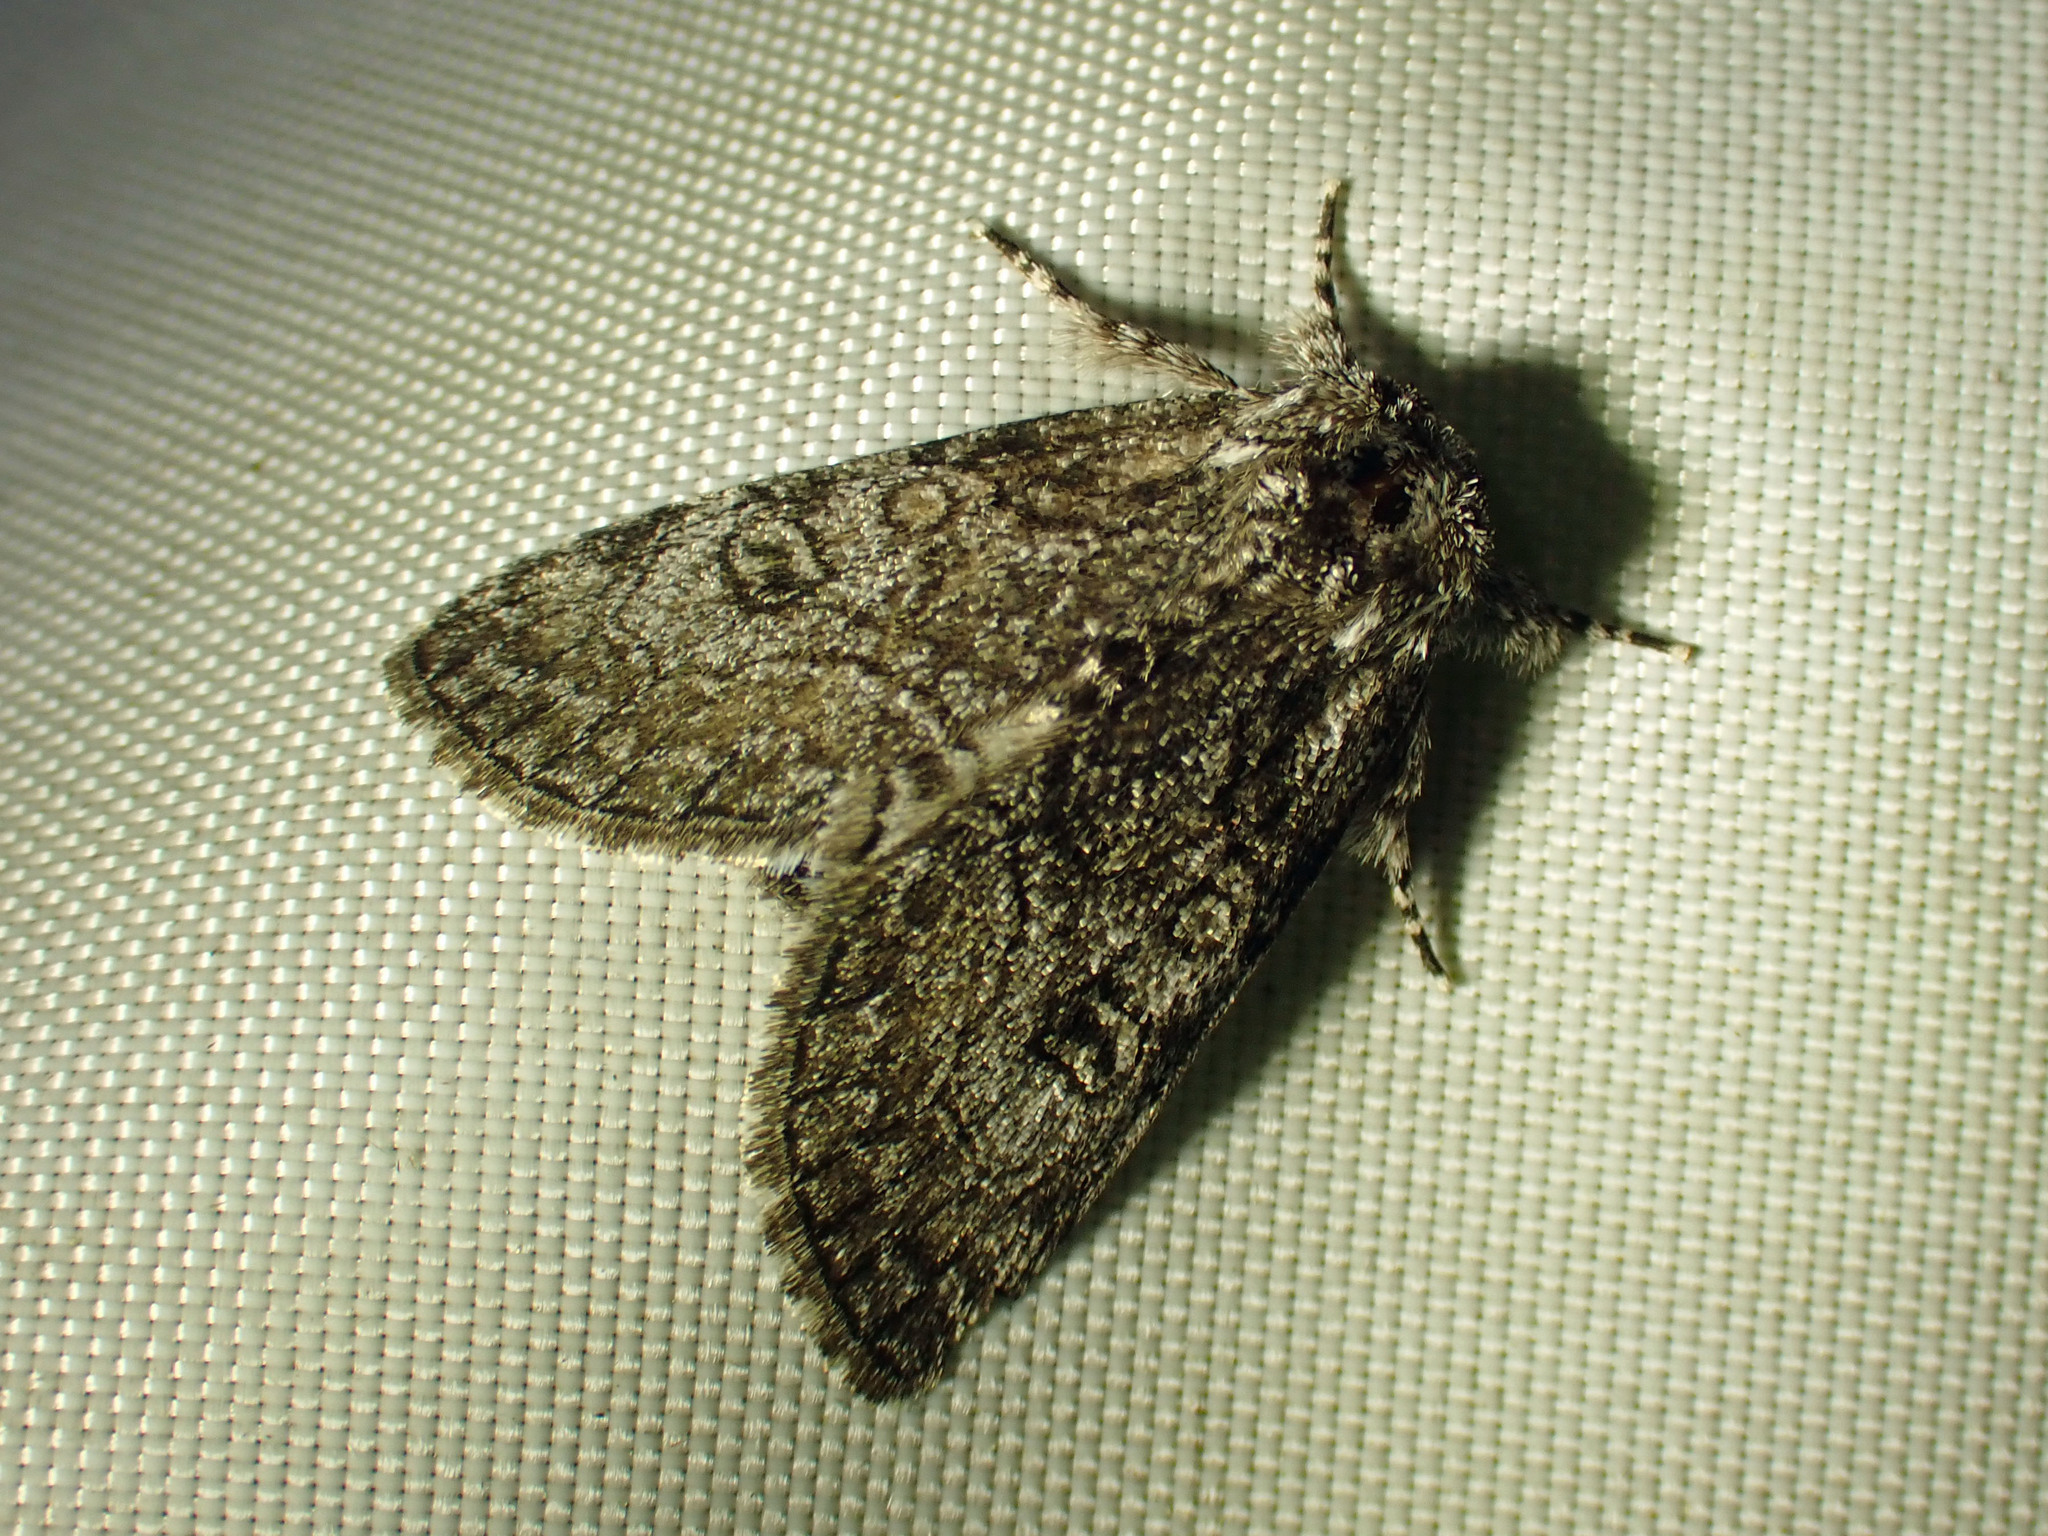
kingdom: Animalia
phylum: Arthropoda
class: Insecta
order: Lepidoptera
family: Noctuidae
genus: Raphia
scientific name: Raphia frater
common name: Brother
